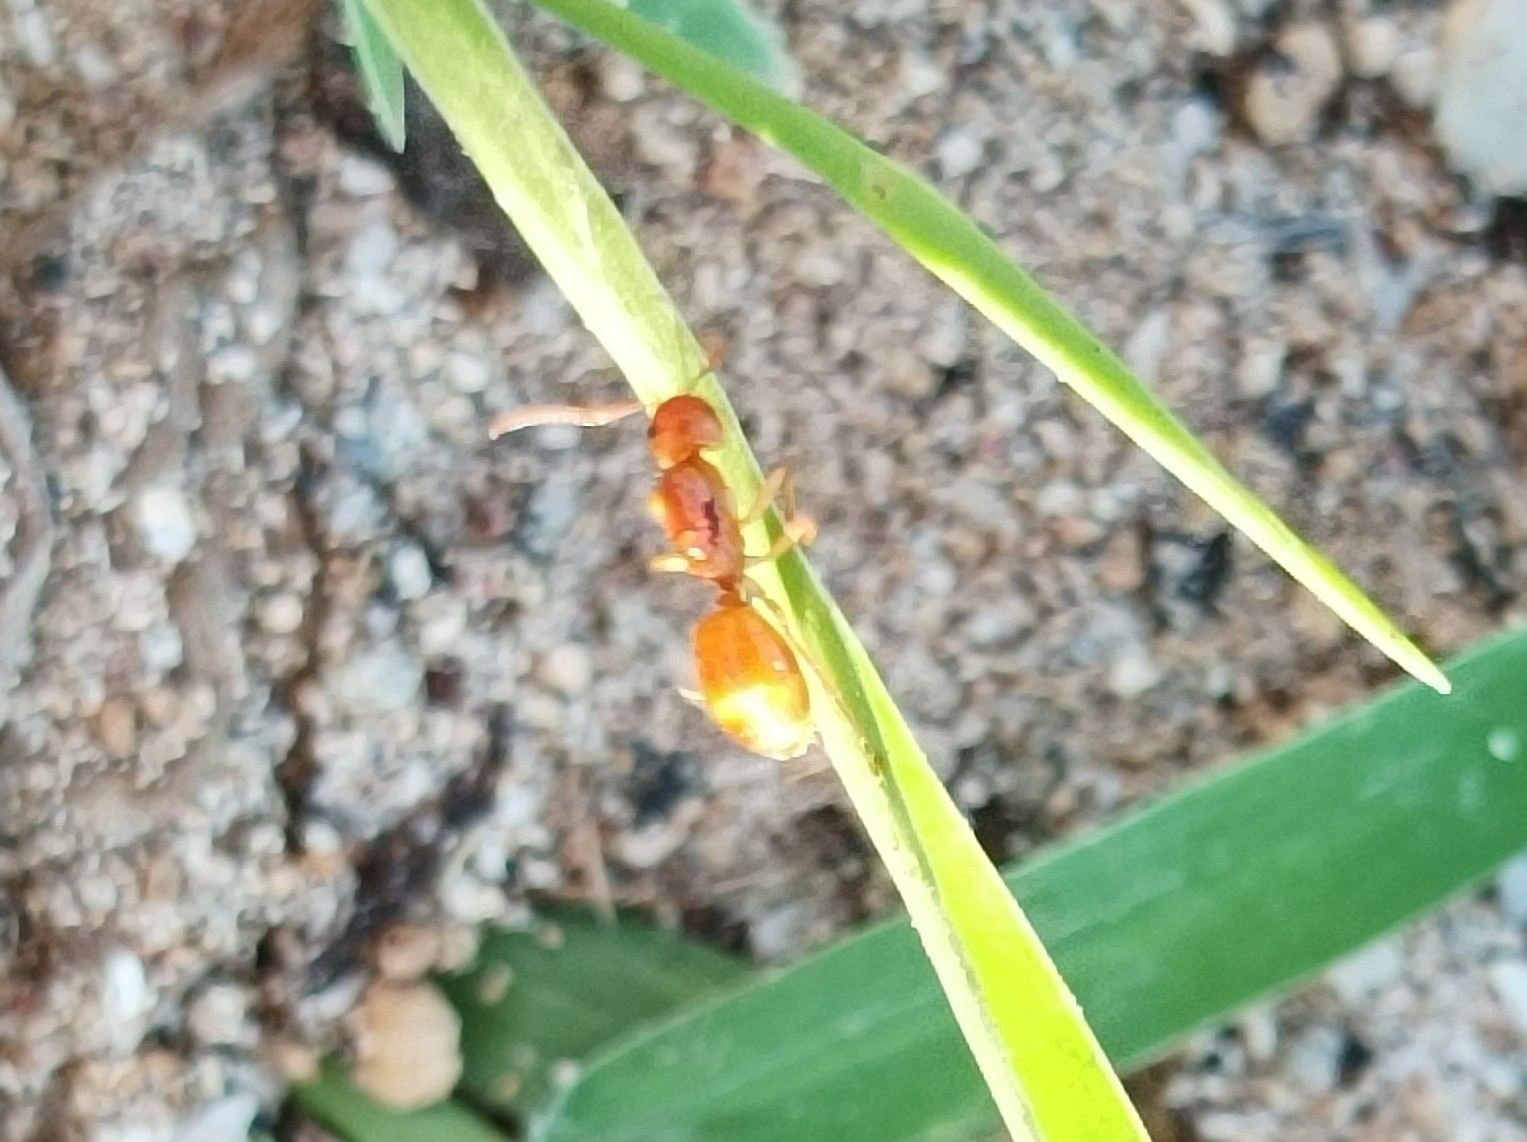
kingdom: Animalia
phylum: Arthropoda
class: Insecta
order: Hymenoptera
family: Formicidae
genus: Camponotus
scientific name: Camponotus chloroticus
